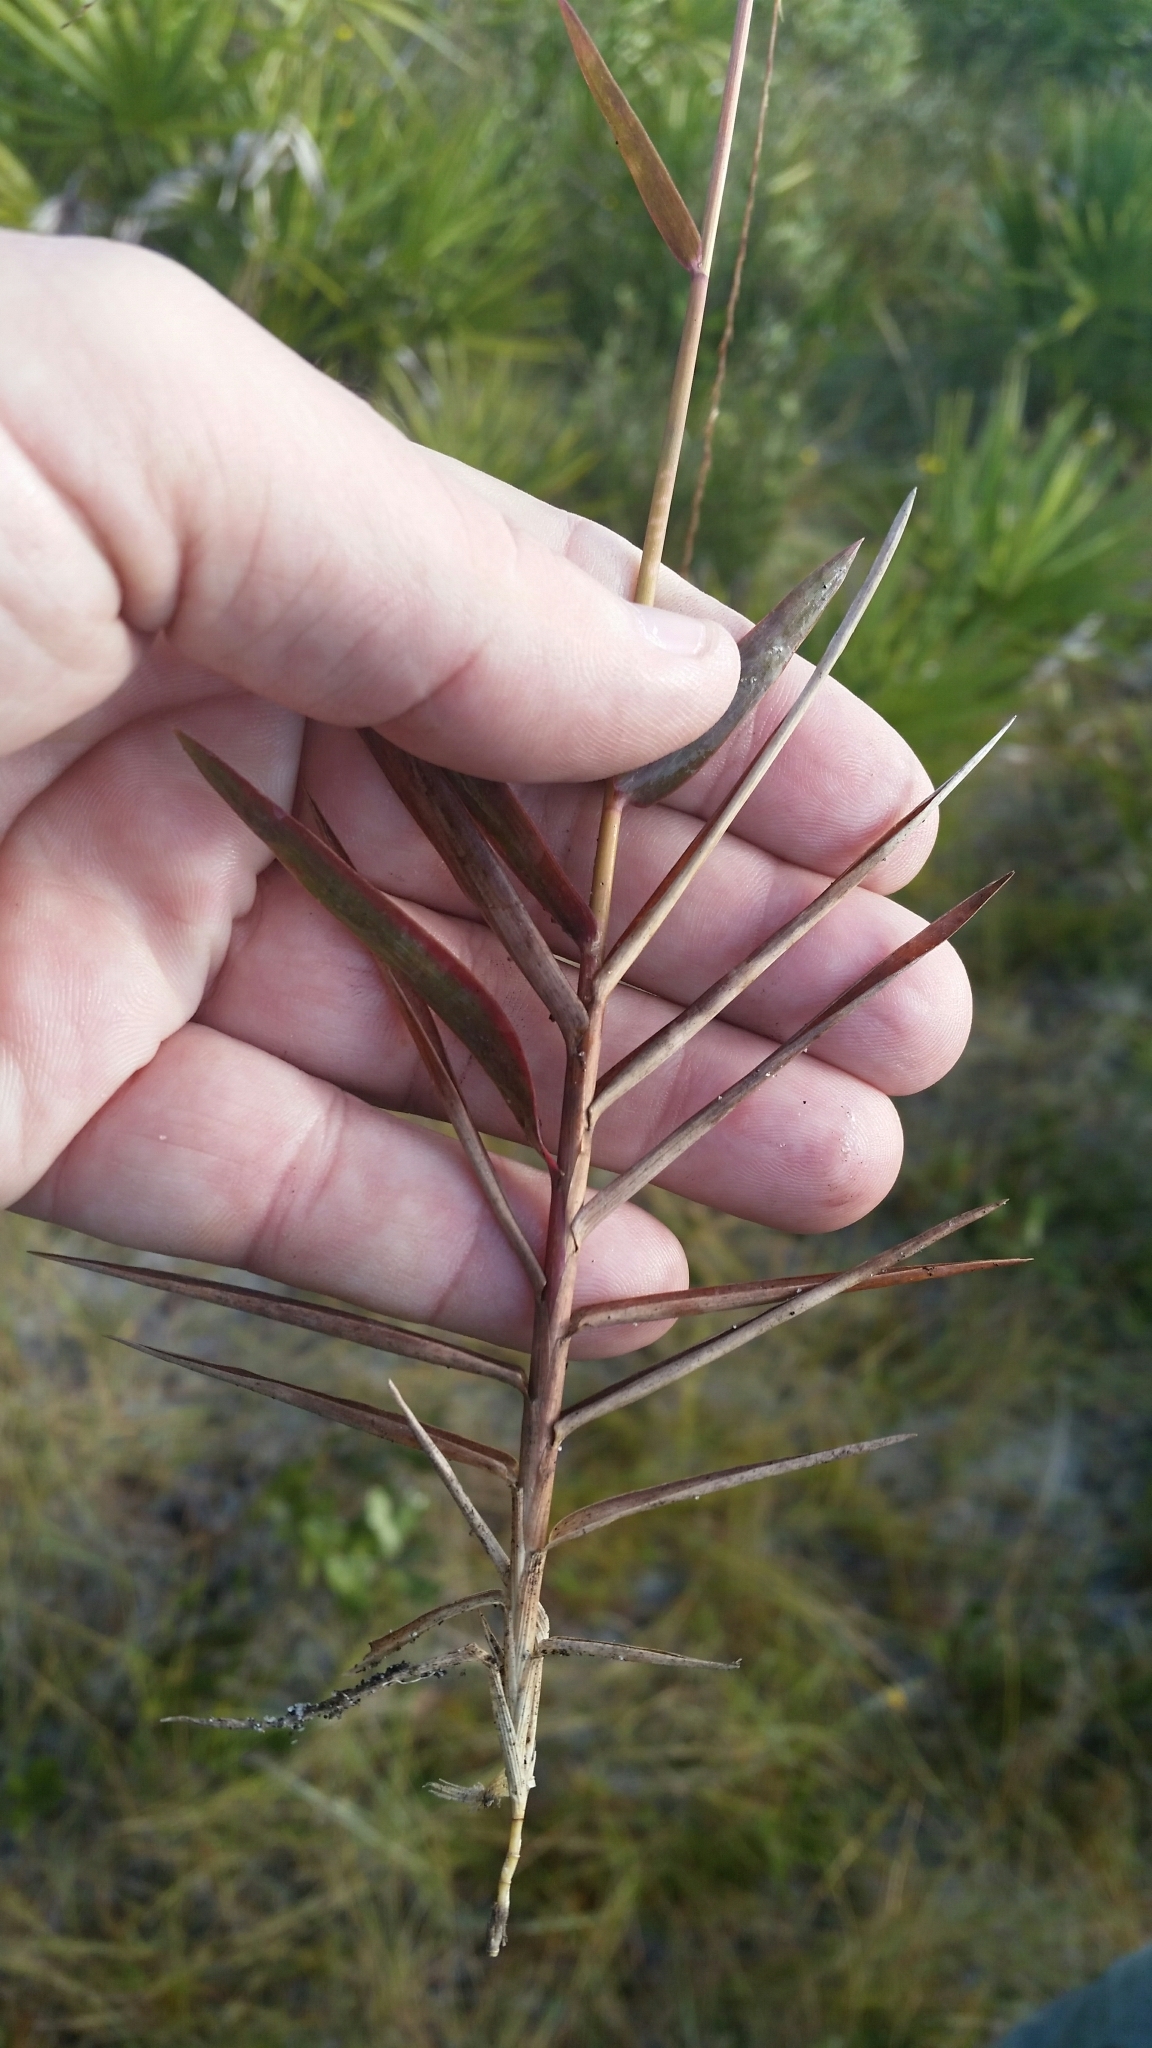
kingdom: Plantae
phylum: Tracheophyta
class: Liliopsida
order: Poales
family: Poaceae
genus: Gymnopogon
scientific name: Gymnopogon chapmanianus
